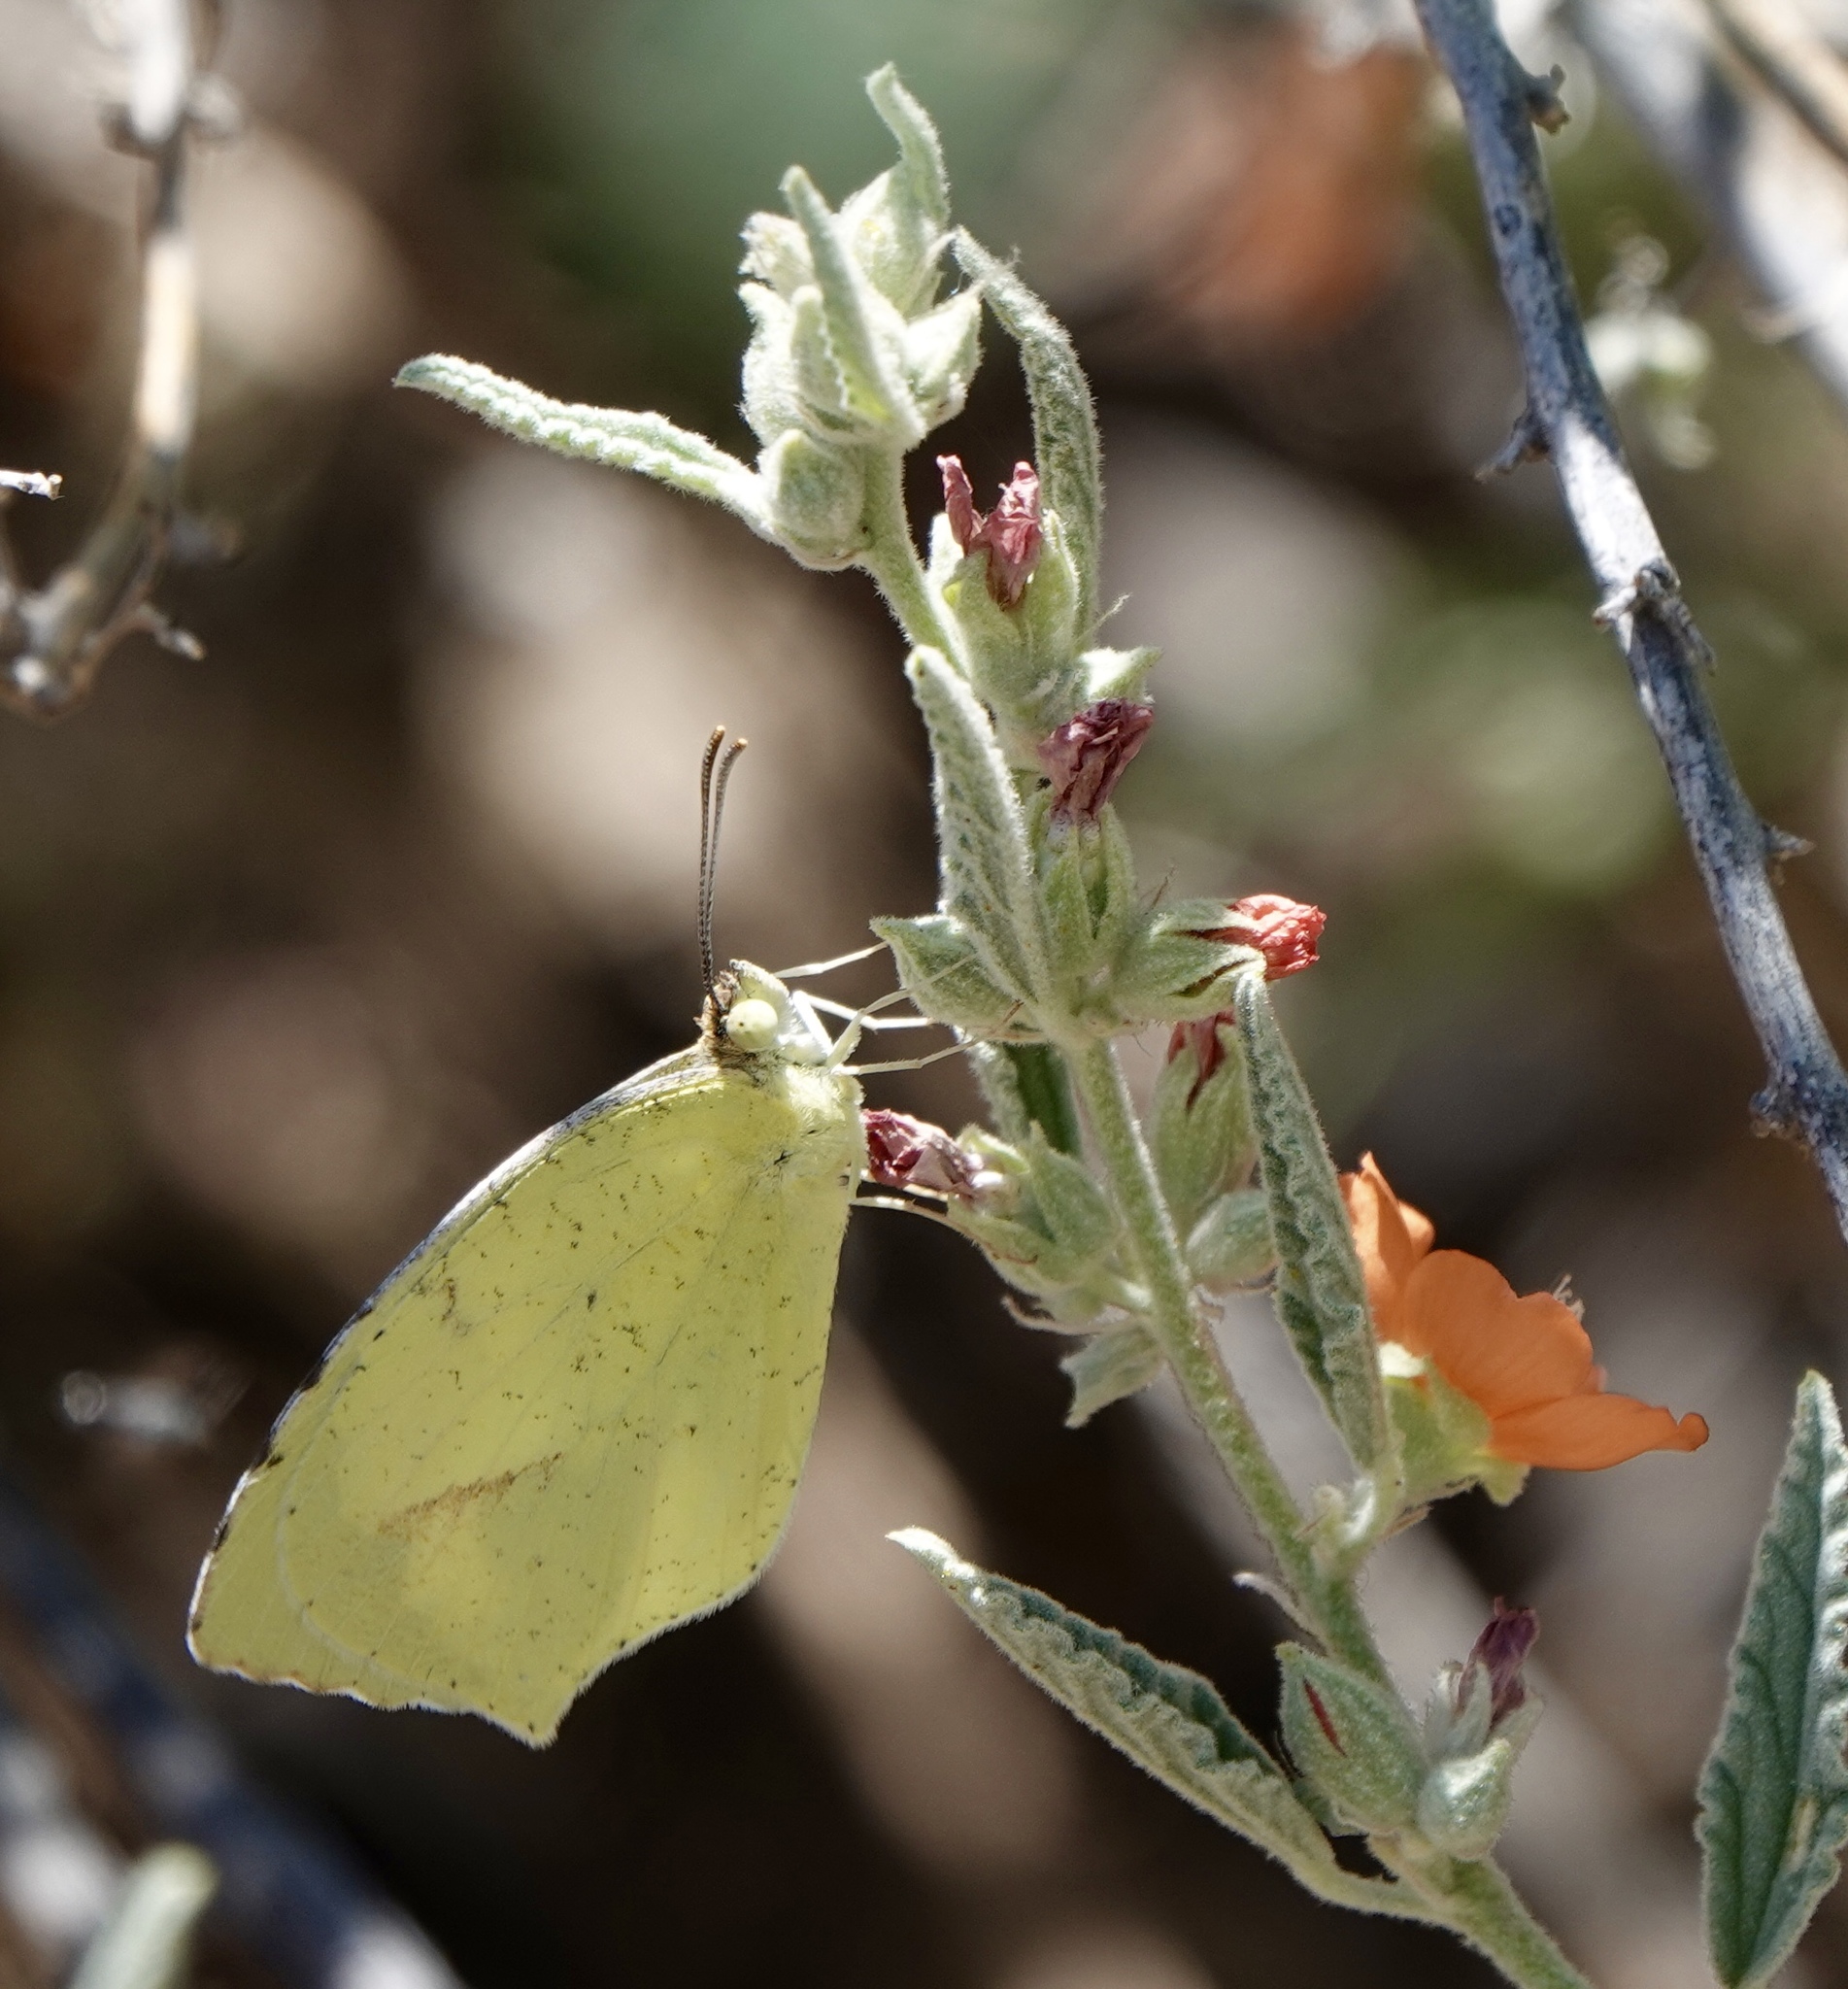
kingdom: Animalia
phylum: Arthropoda
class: Insecta
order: Lepidoptera
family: Pieridae
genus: Abaeis
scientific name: Abaeis mexicana
